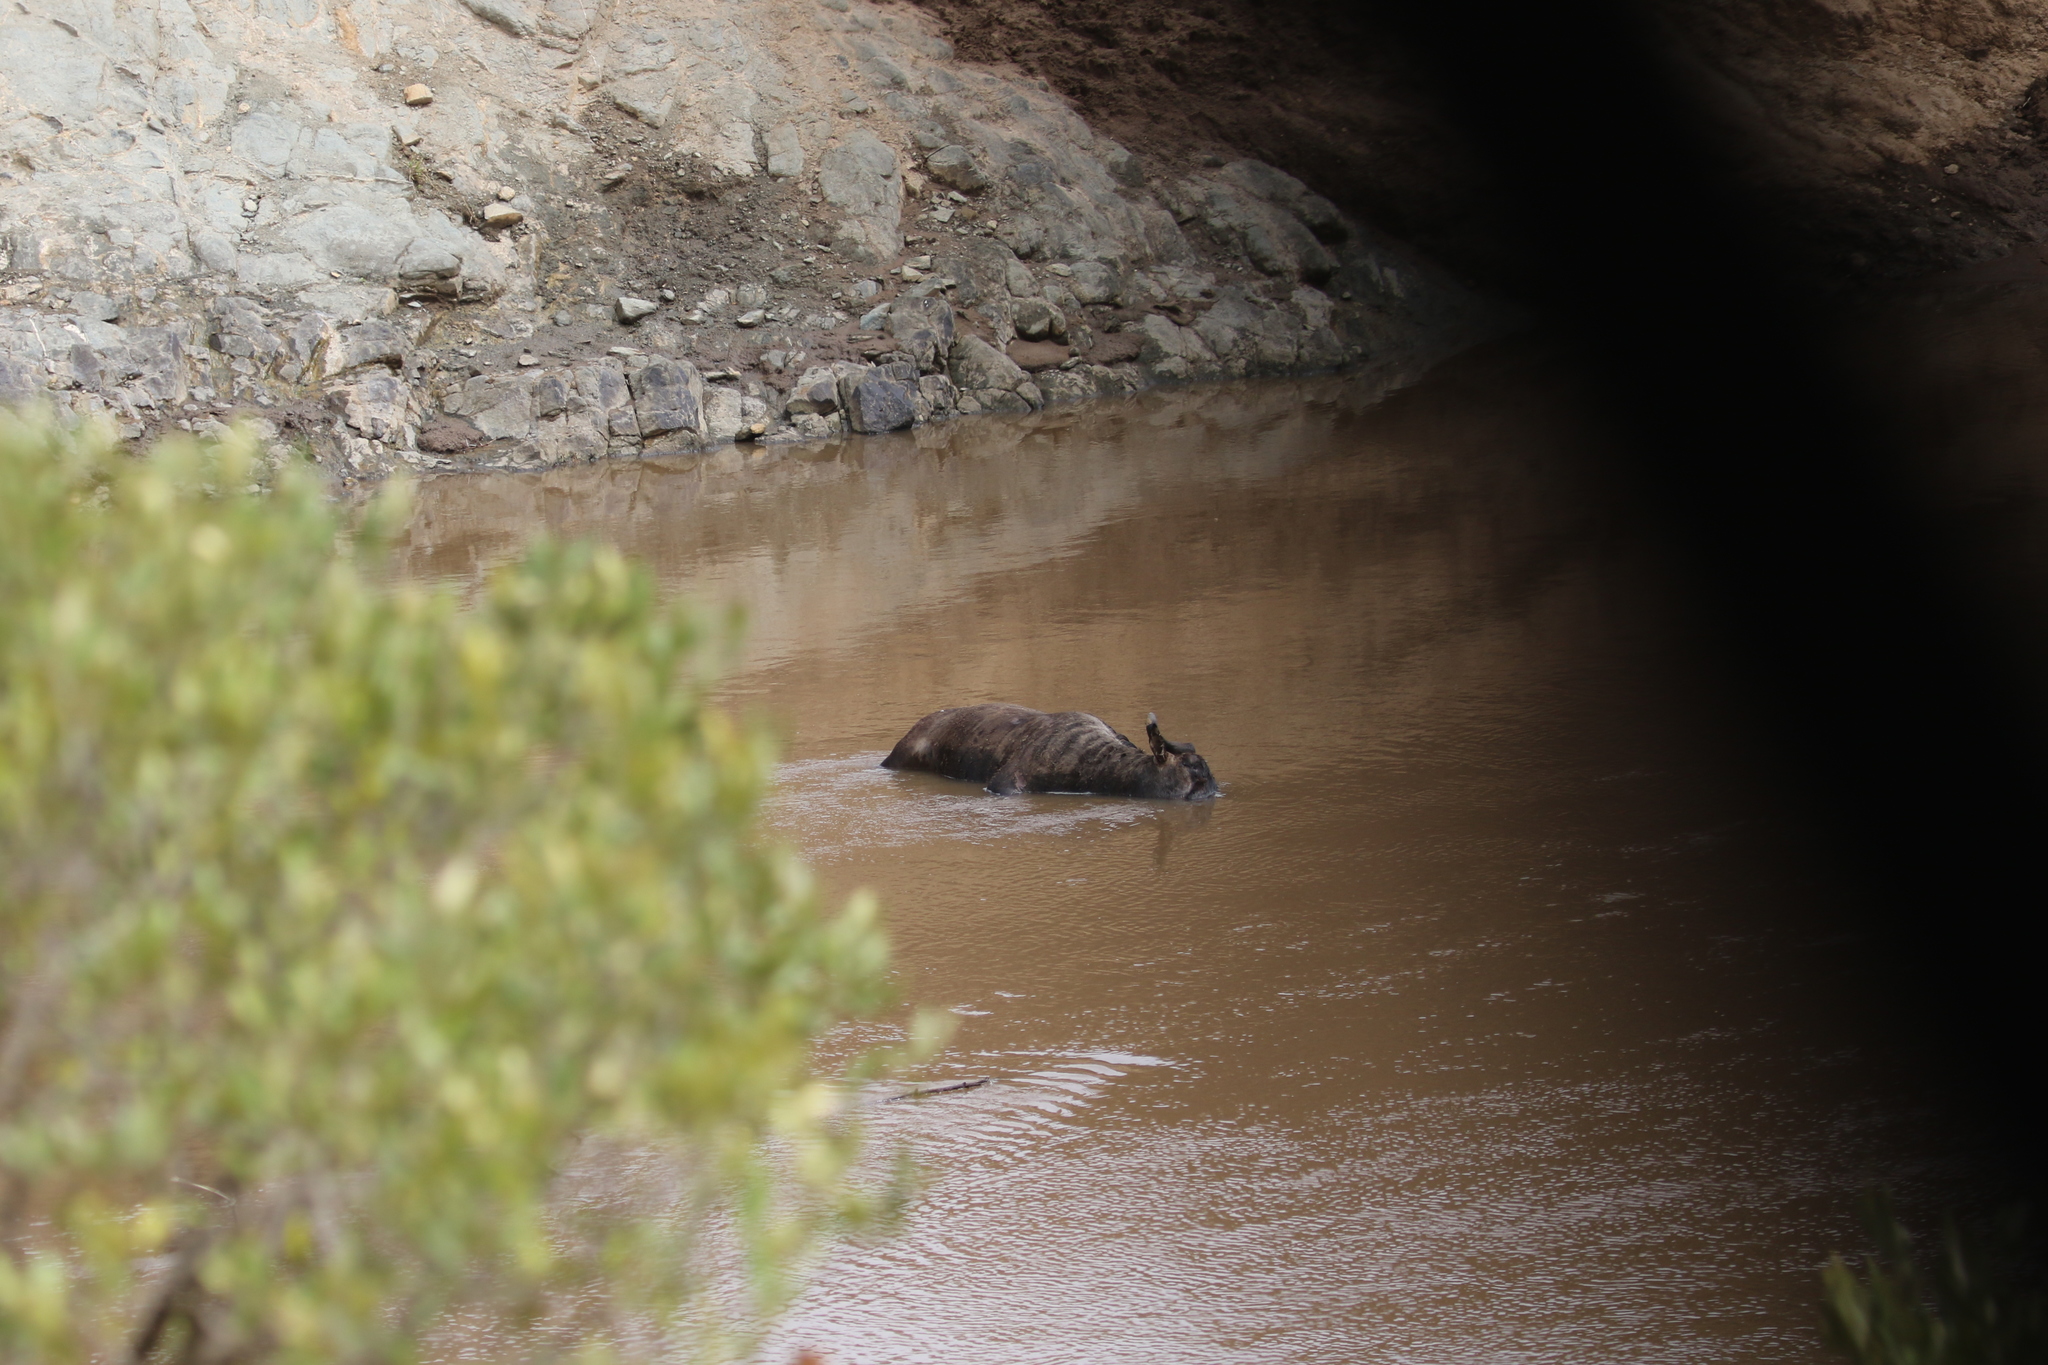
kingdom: Animalia
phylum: Chordata
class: Mammalia
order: Artiodactyla
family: Bovidae
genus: Connochaetes
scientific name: Connochaetes taurinus
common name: Blue wildebeest
